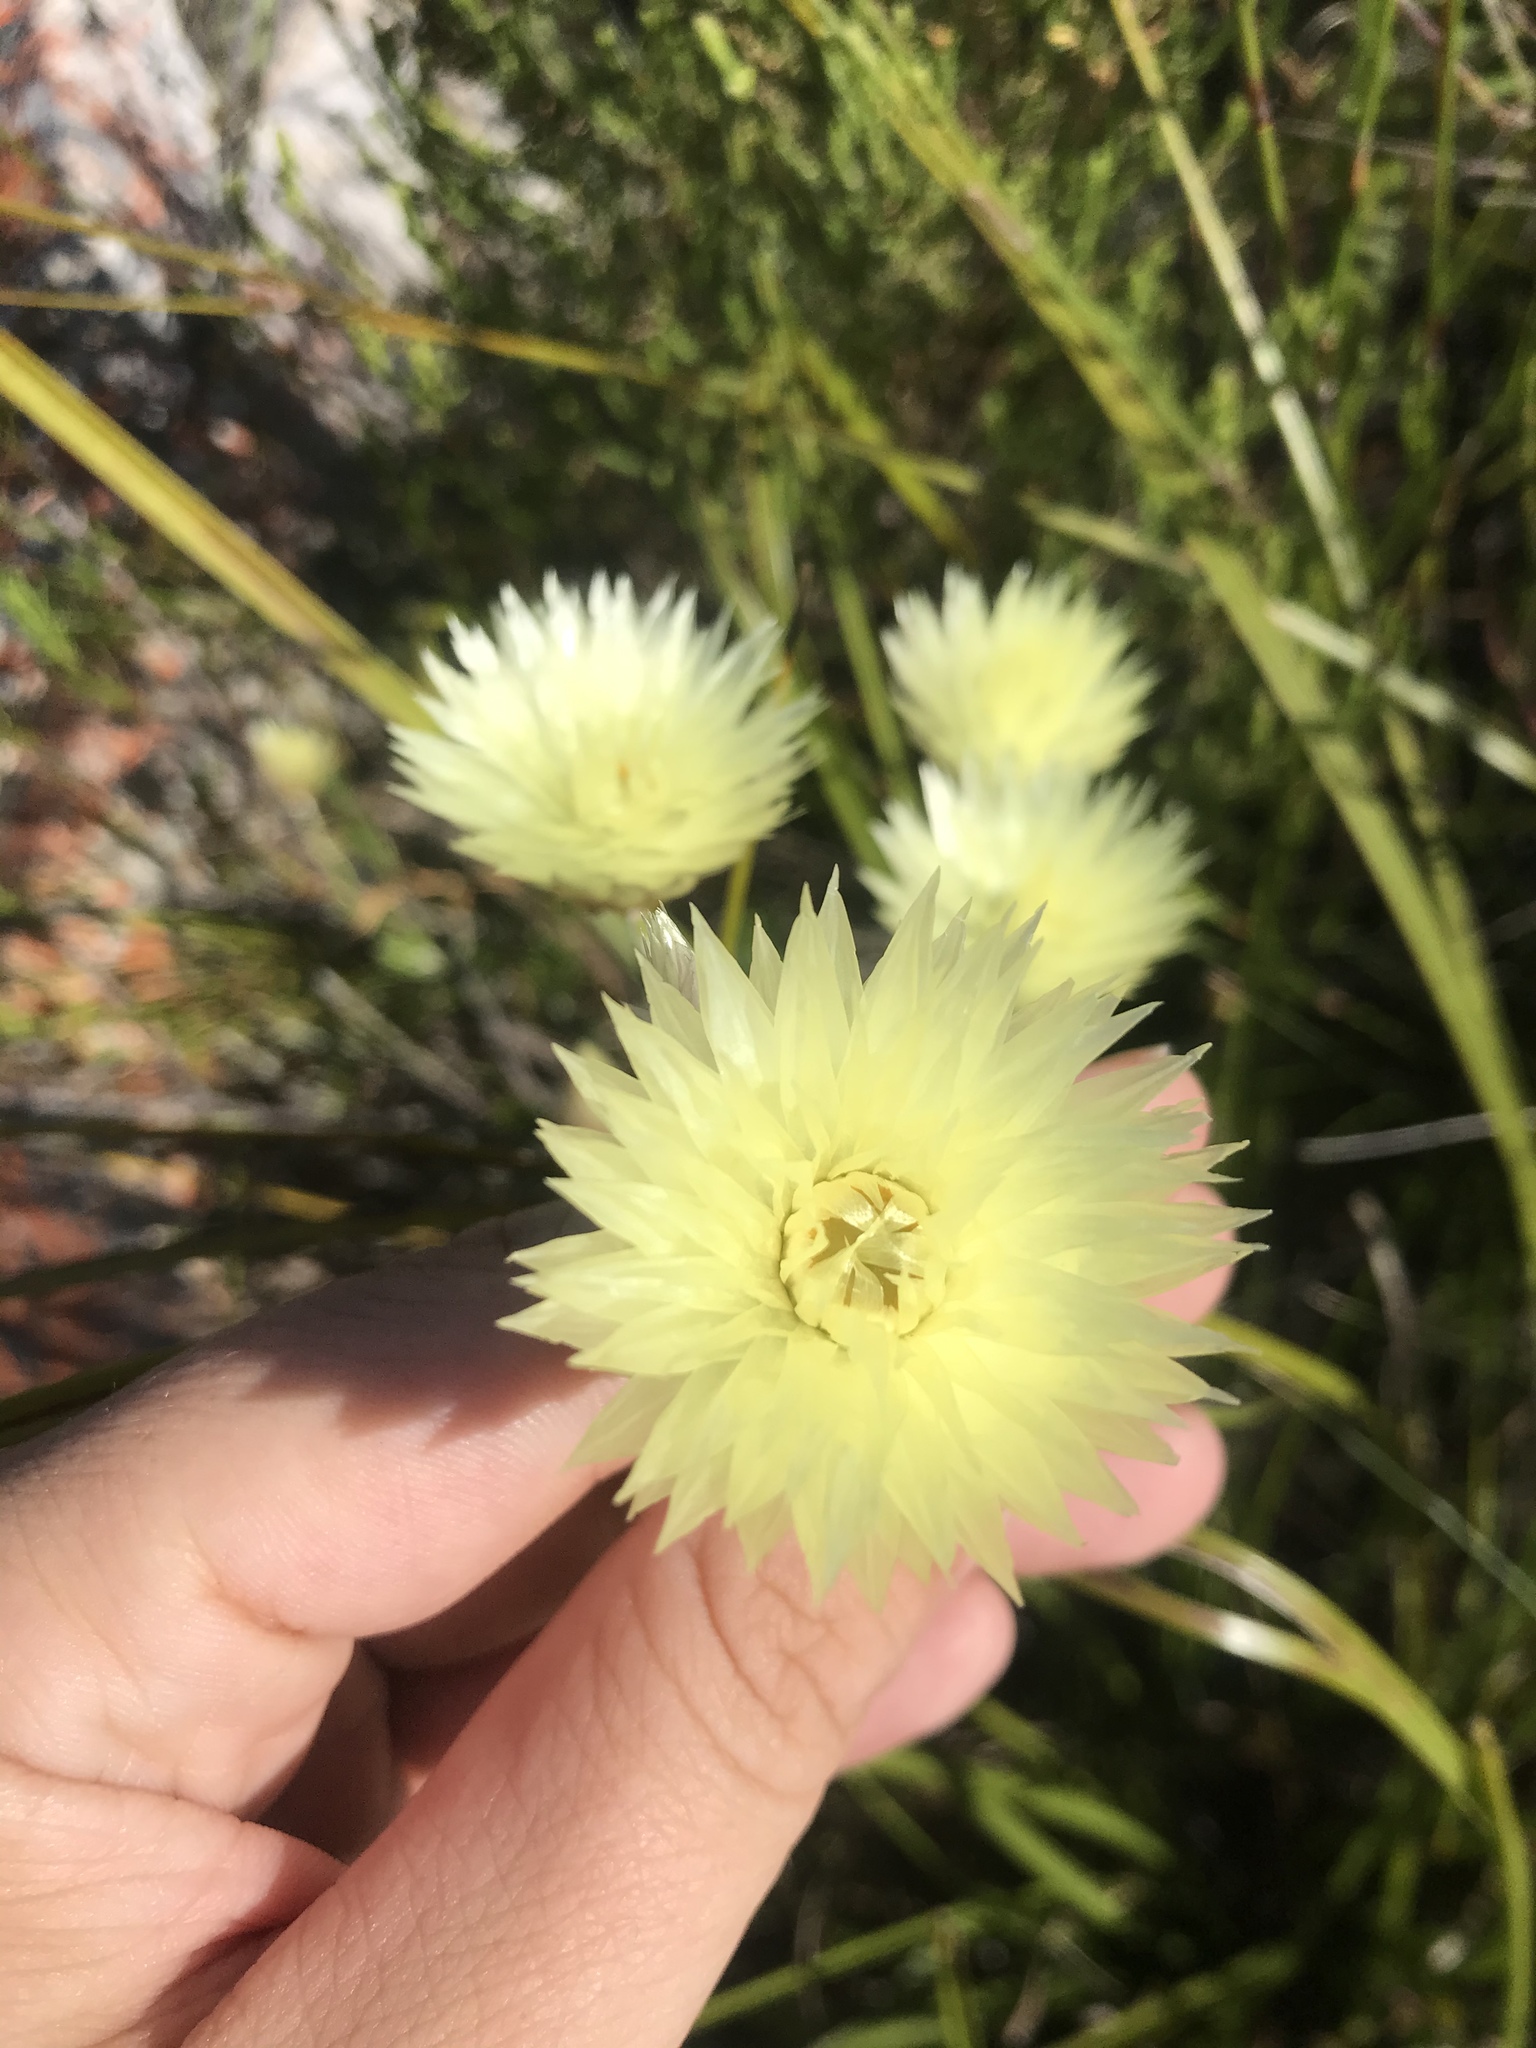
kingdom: Plantae
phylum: Tracheophyta
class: Magnoliopsida
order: Asterales
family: Asteraceae
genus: Edmondia
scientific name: Edmondia sesamoides
